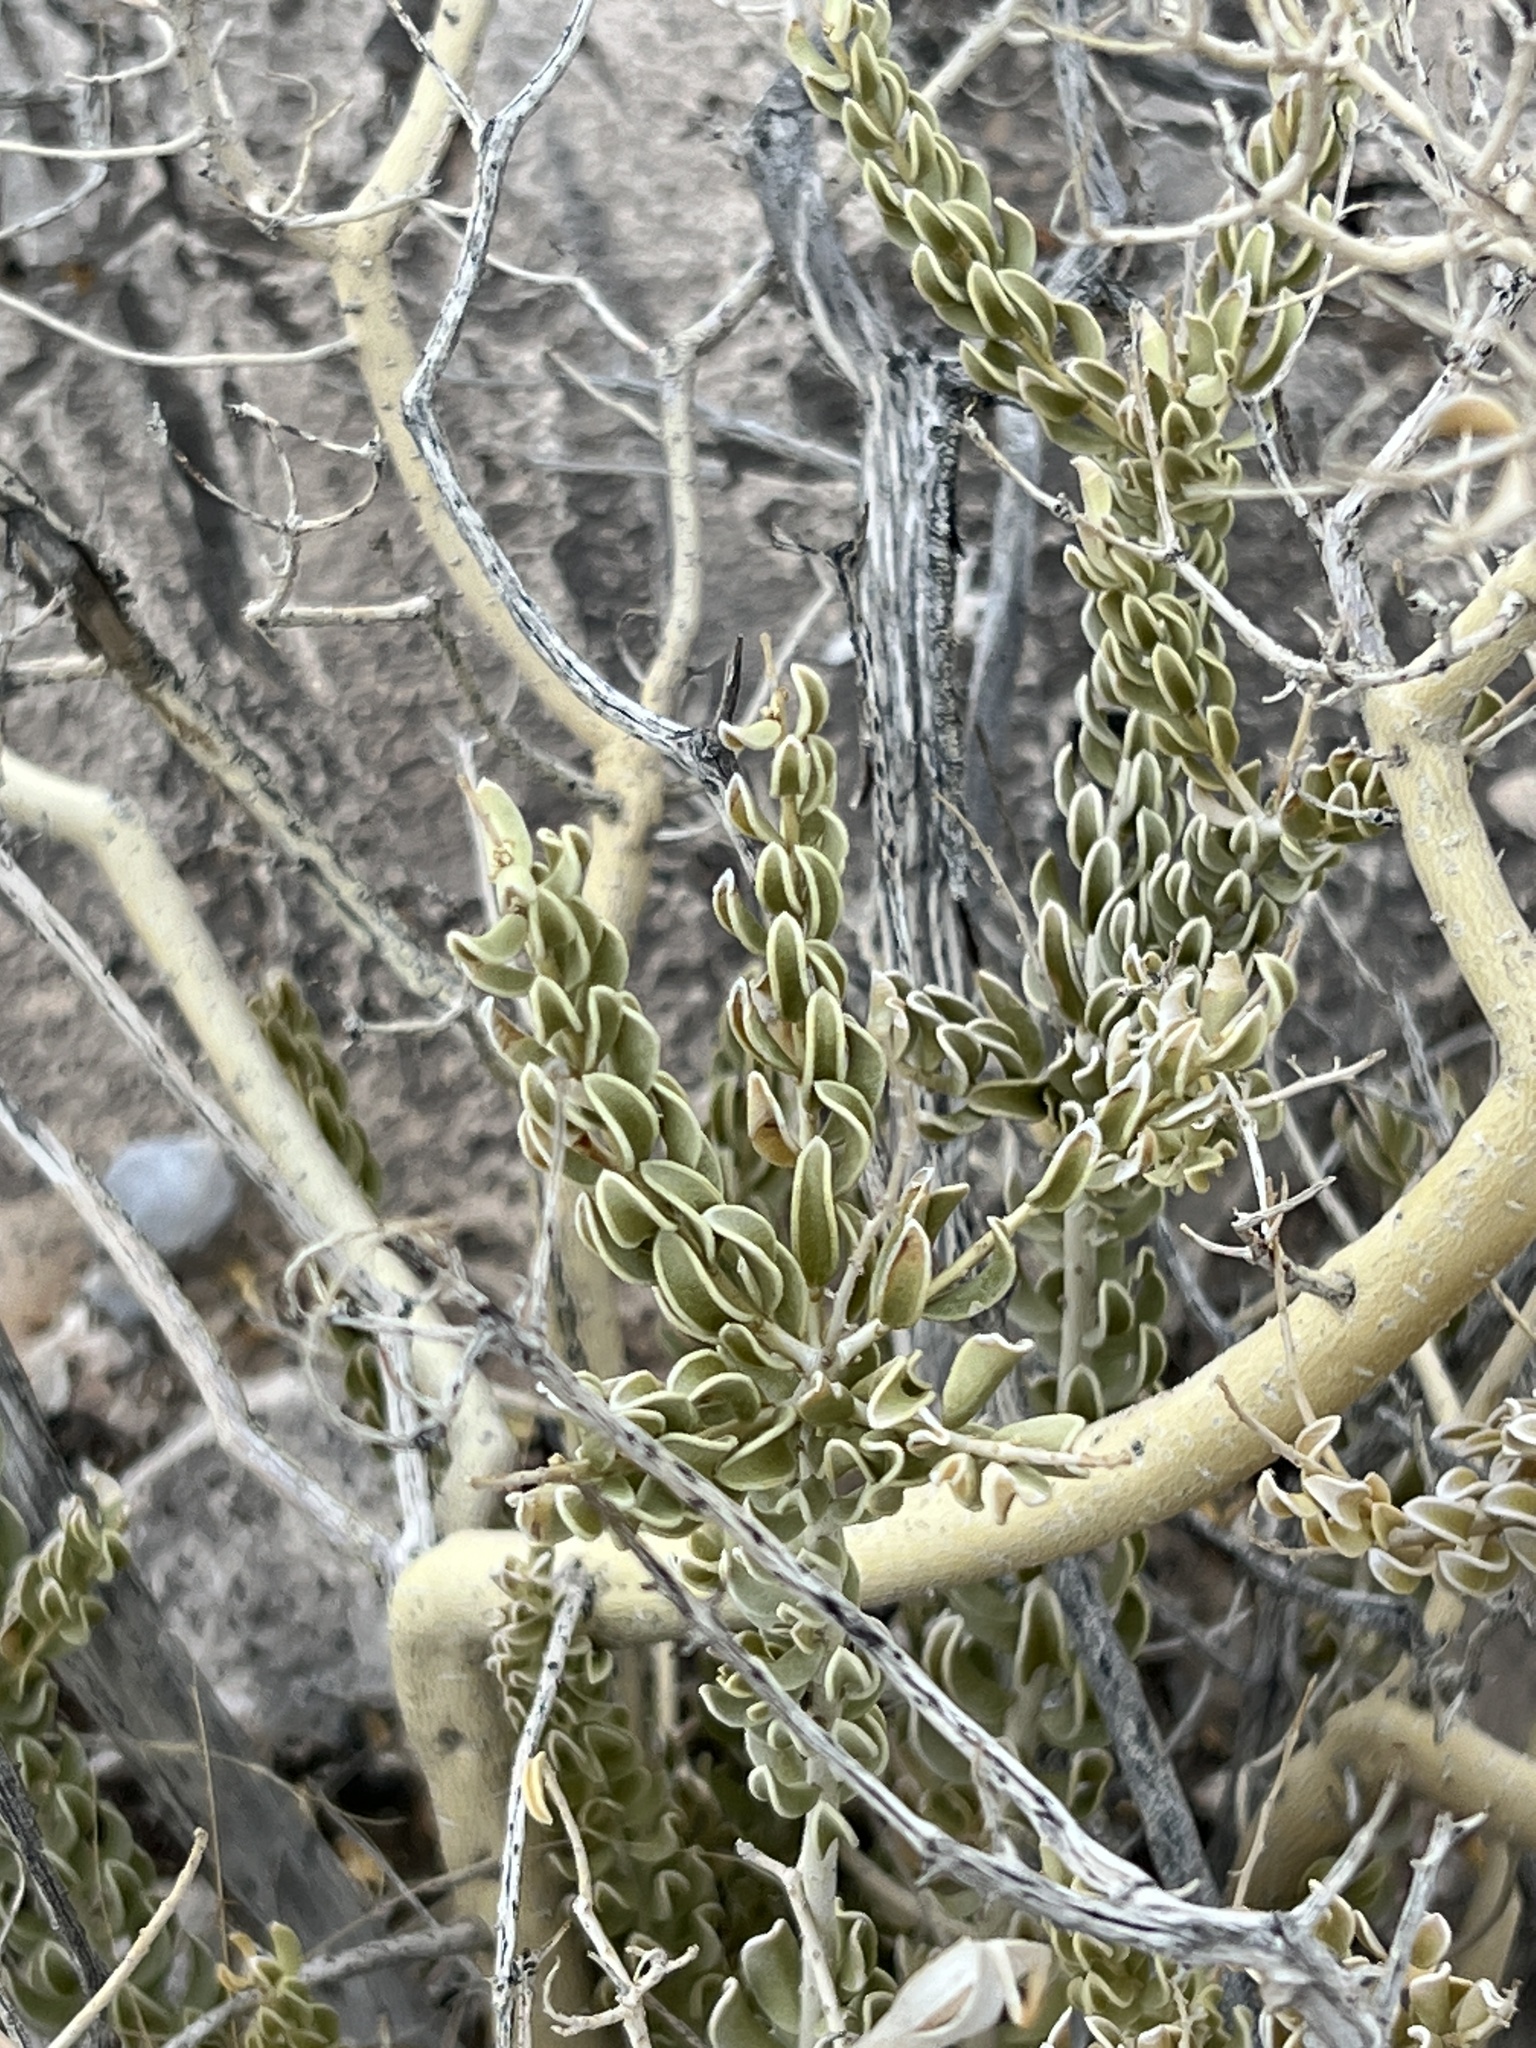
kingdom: Plantae
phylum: Tracheophyta
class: Magnoliopsida
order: Celastrales
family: Celastraceae
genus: Mortonia
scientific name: Mortonia utahensis
